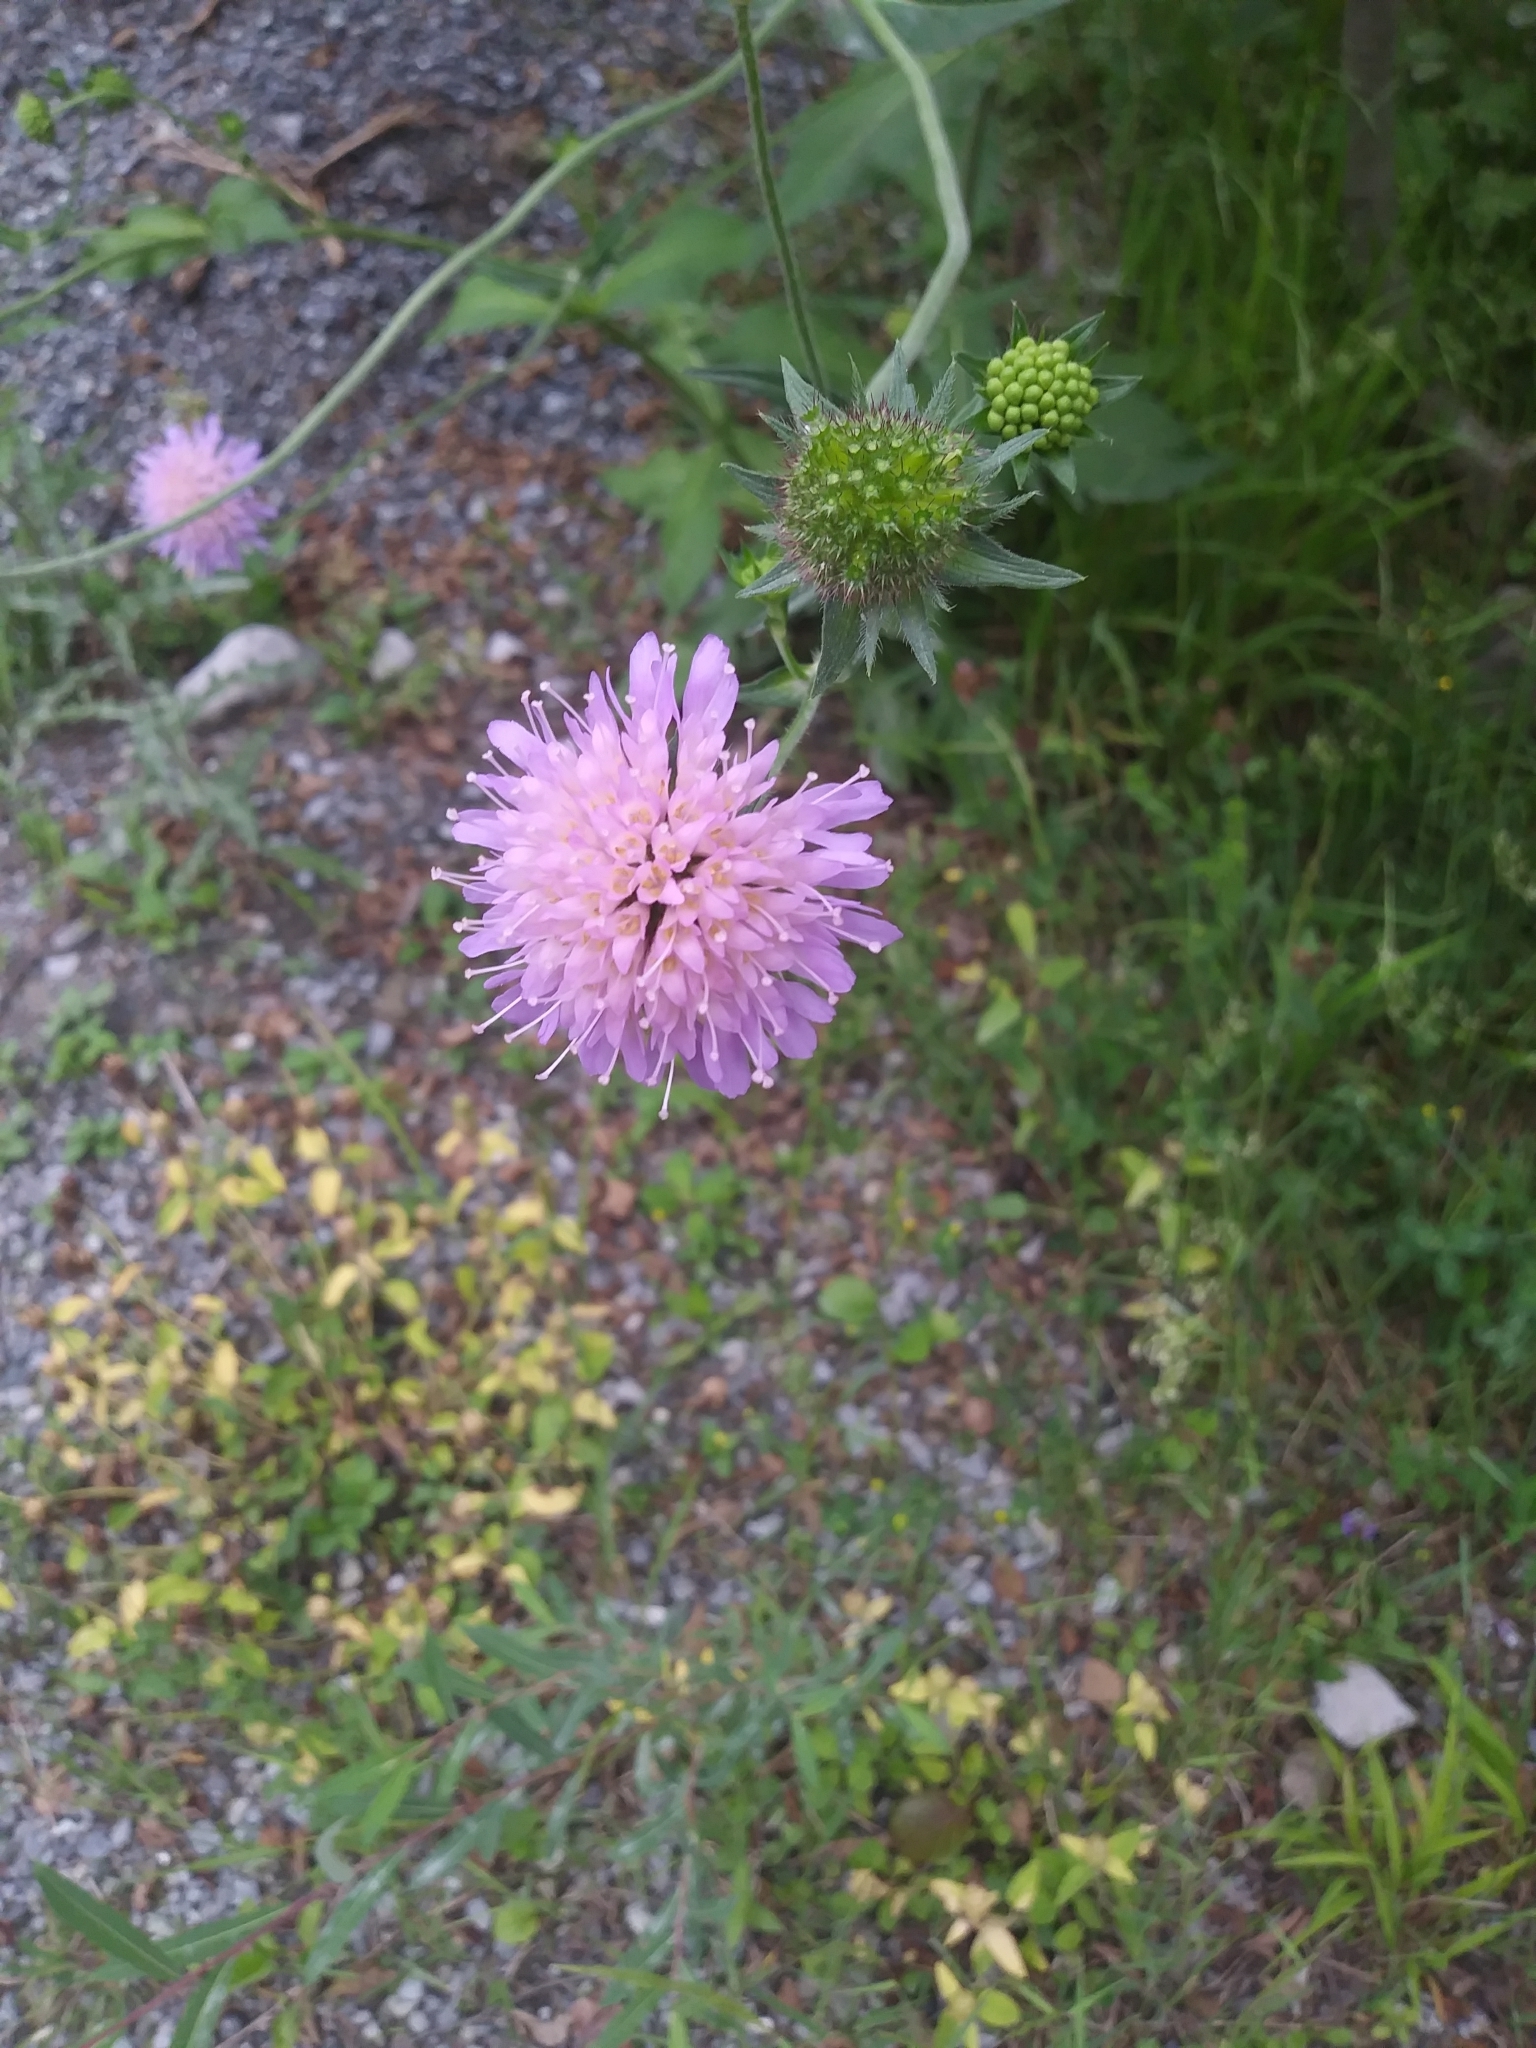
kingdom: Plantae
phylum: Tracheophyta
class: Magnoliopsida
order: Dipsacales
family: Caprifoliaceae
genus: Knautia
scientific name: Knautia dipsacifolia
